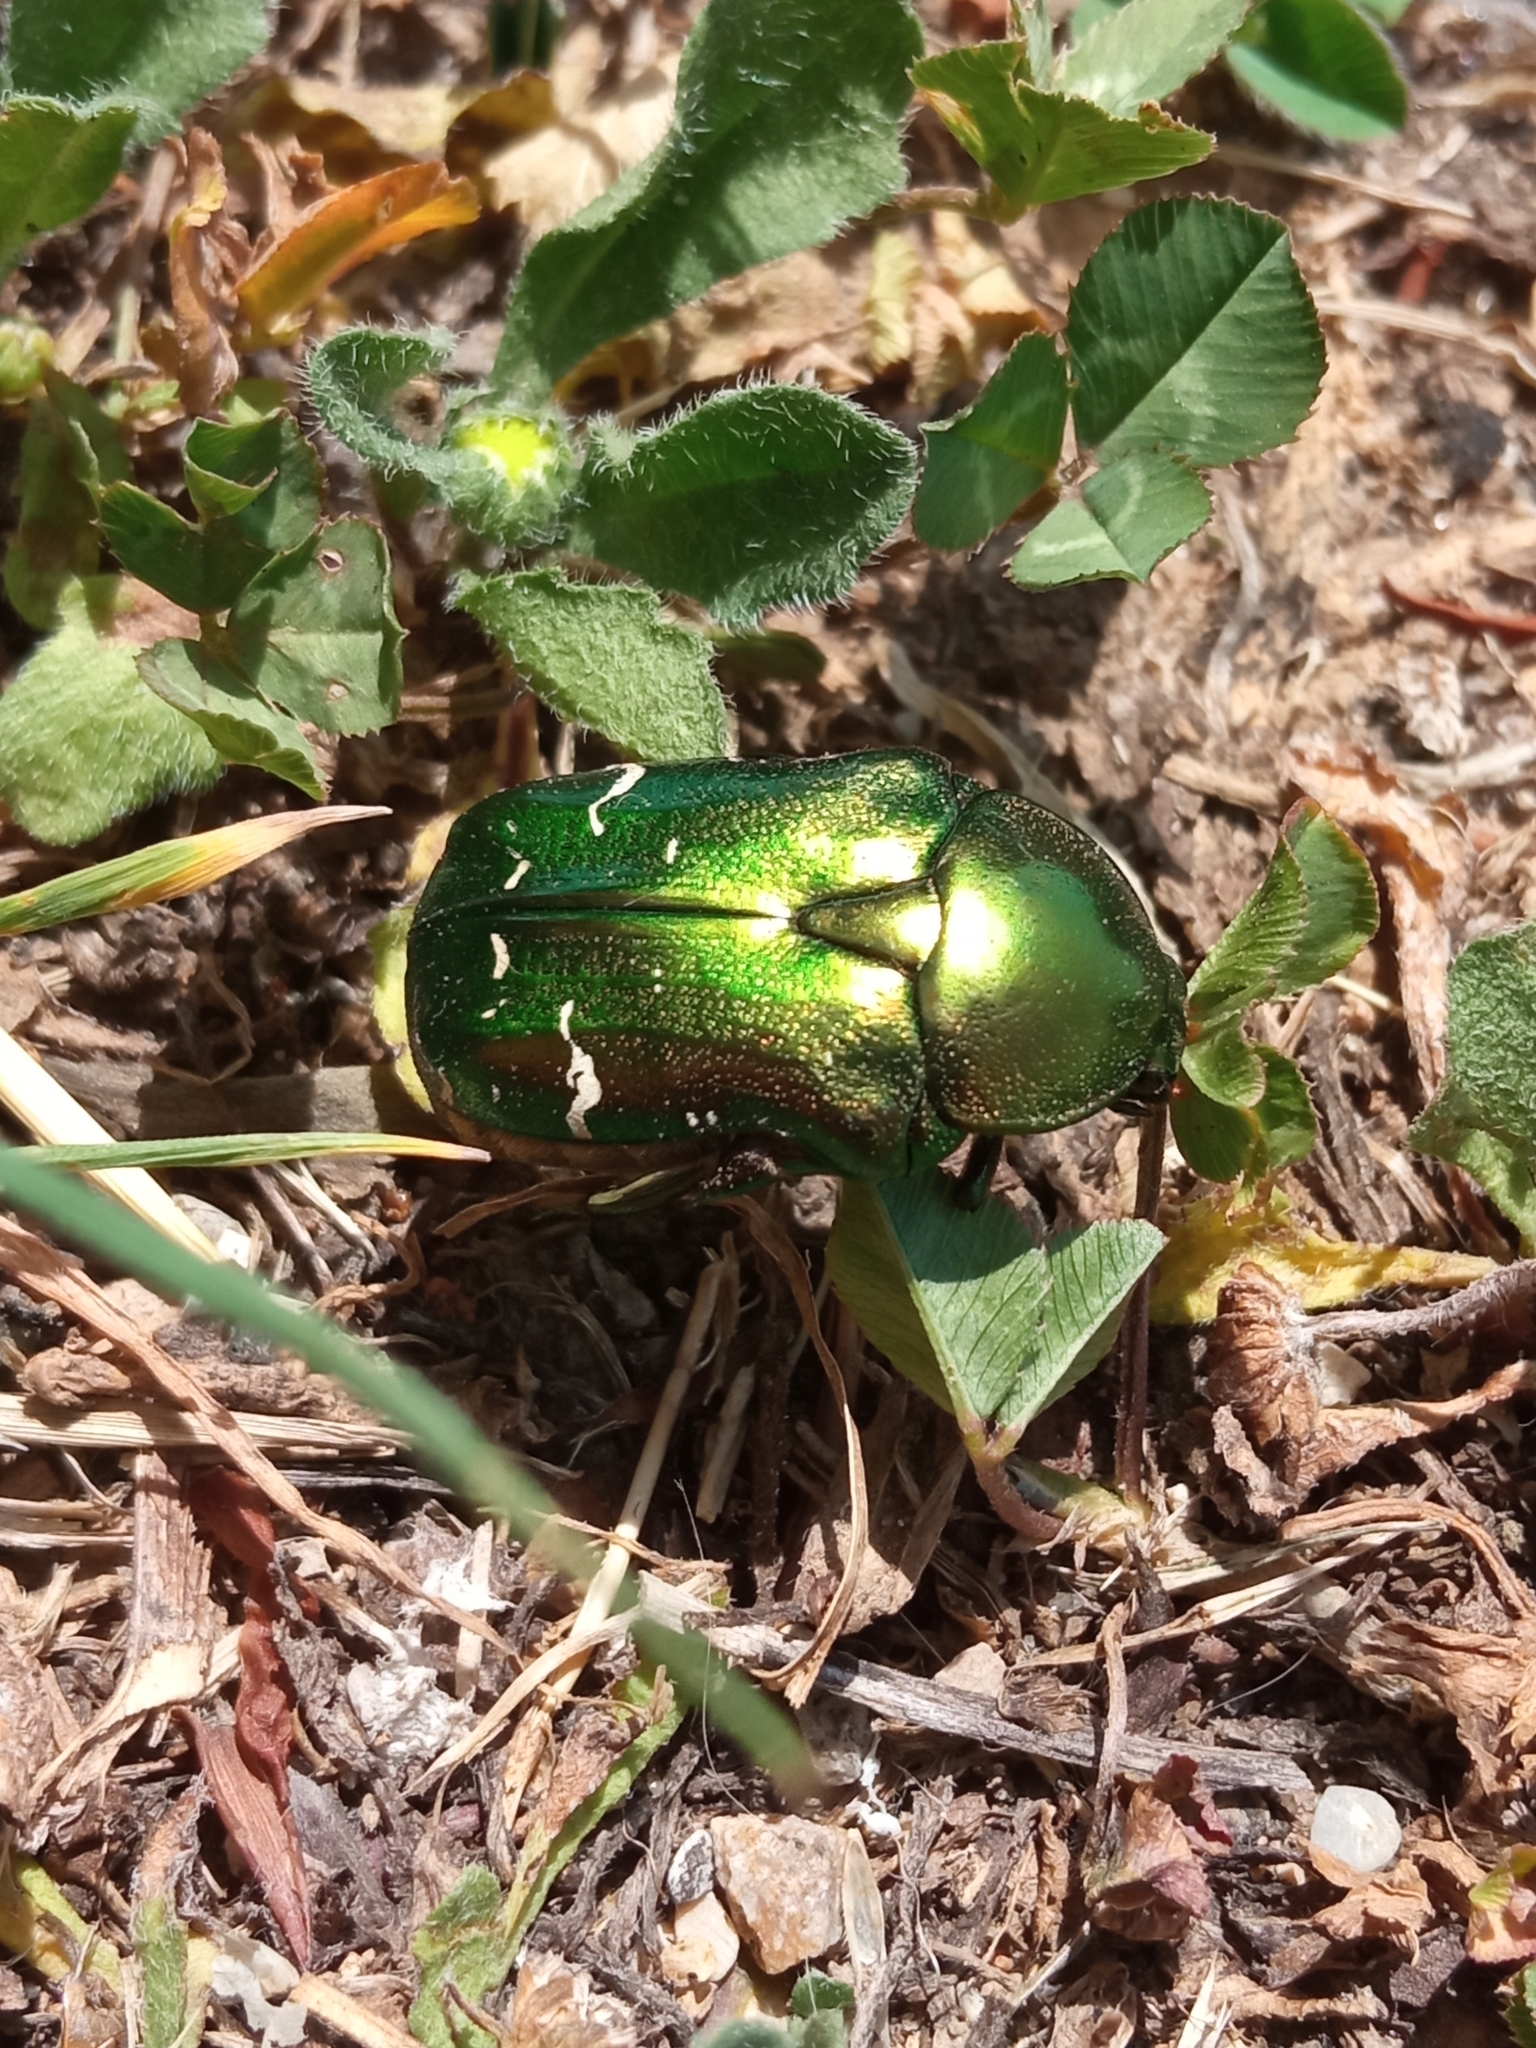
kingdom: Animalia
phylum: Arthropoda
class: Insecta
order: Coleoptera
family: Scarabaeidae
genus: Cetonia
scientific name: Cetonia aurata
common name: Rose chafer
